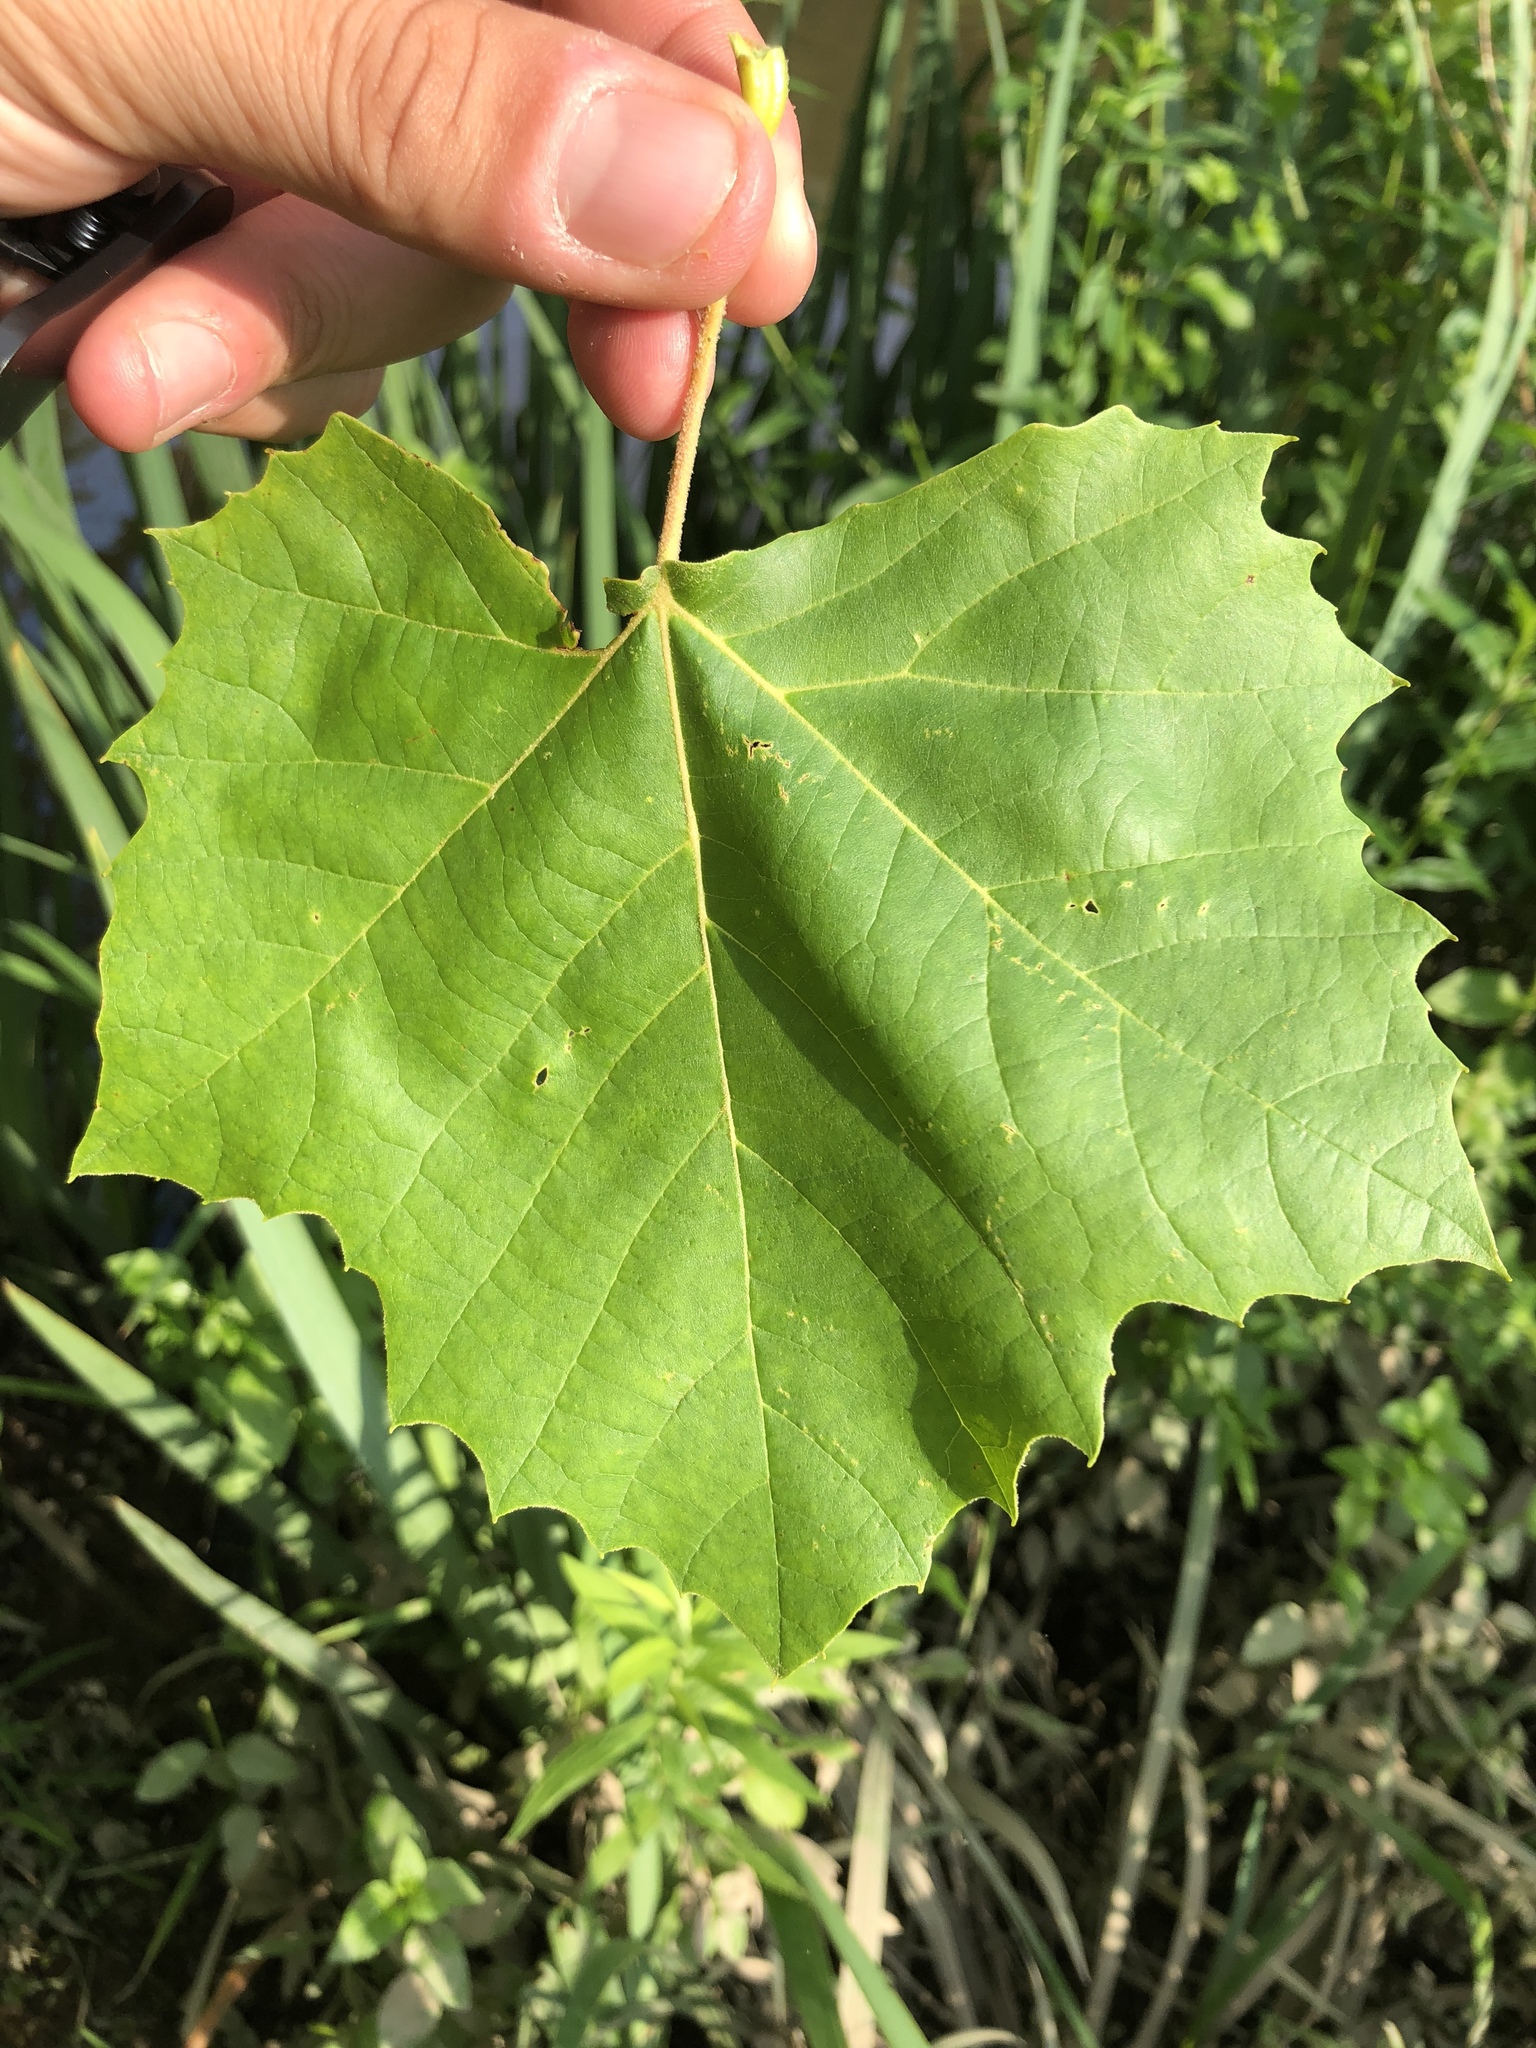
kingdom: Plantae
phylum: Tracheophyta
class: Magnoliopsida
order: Proteales
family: Platanaceae
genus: Platanus
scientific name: Platanus occidentalis
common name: American sycamore
